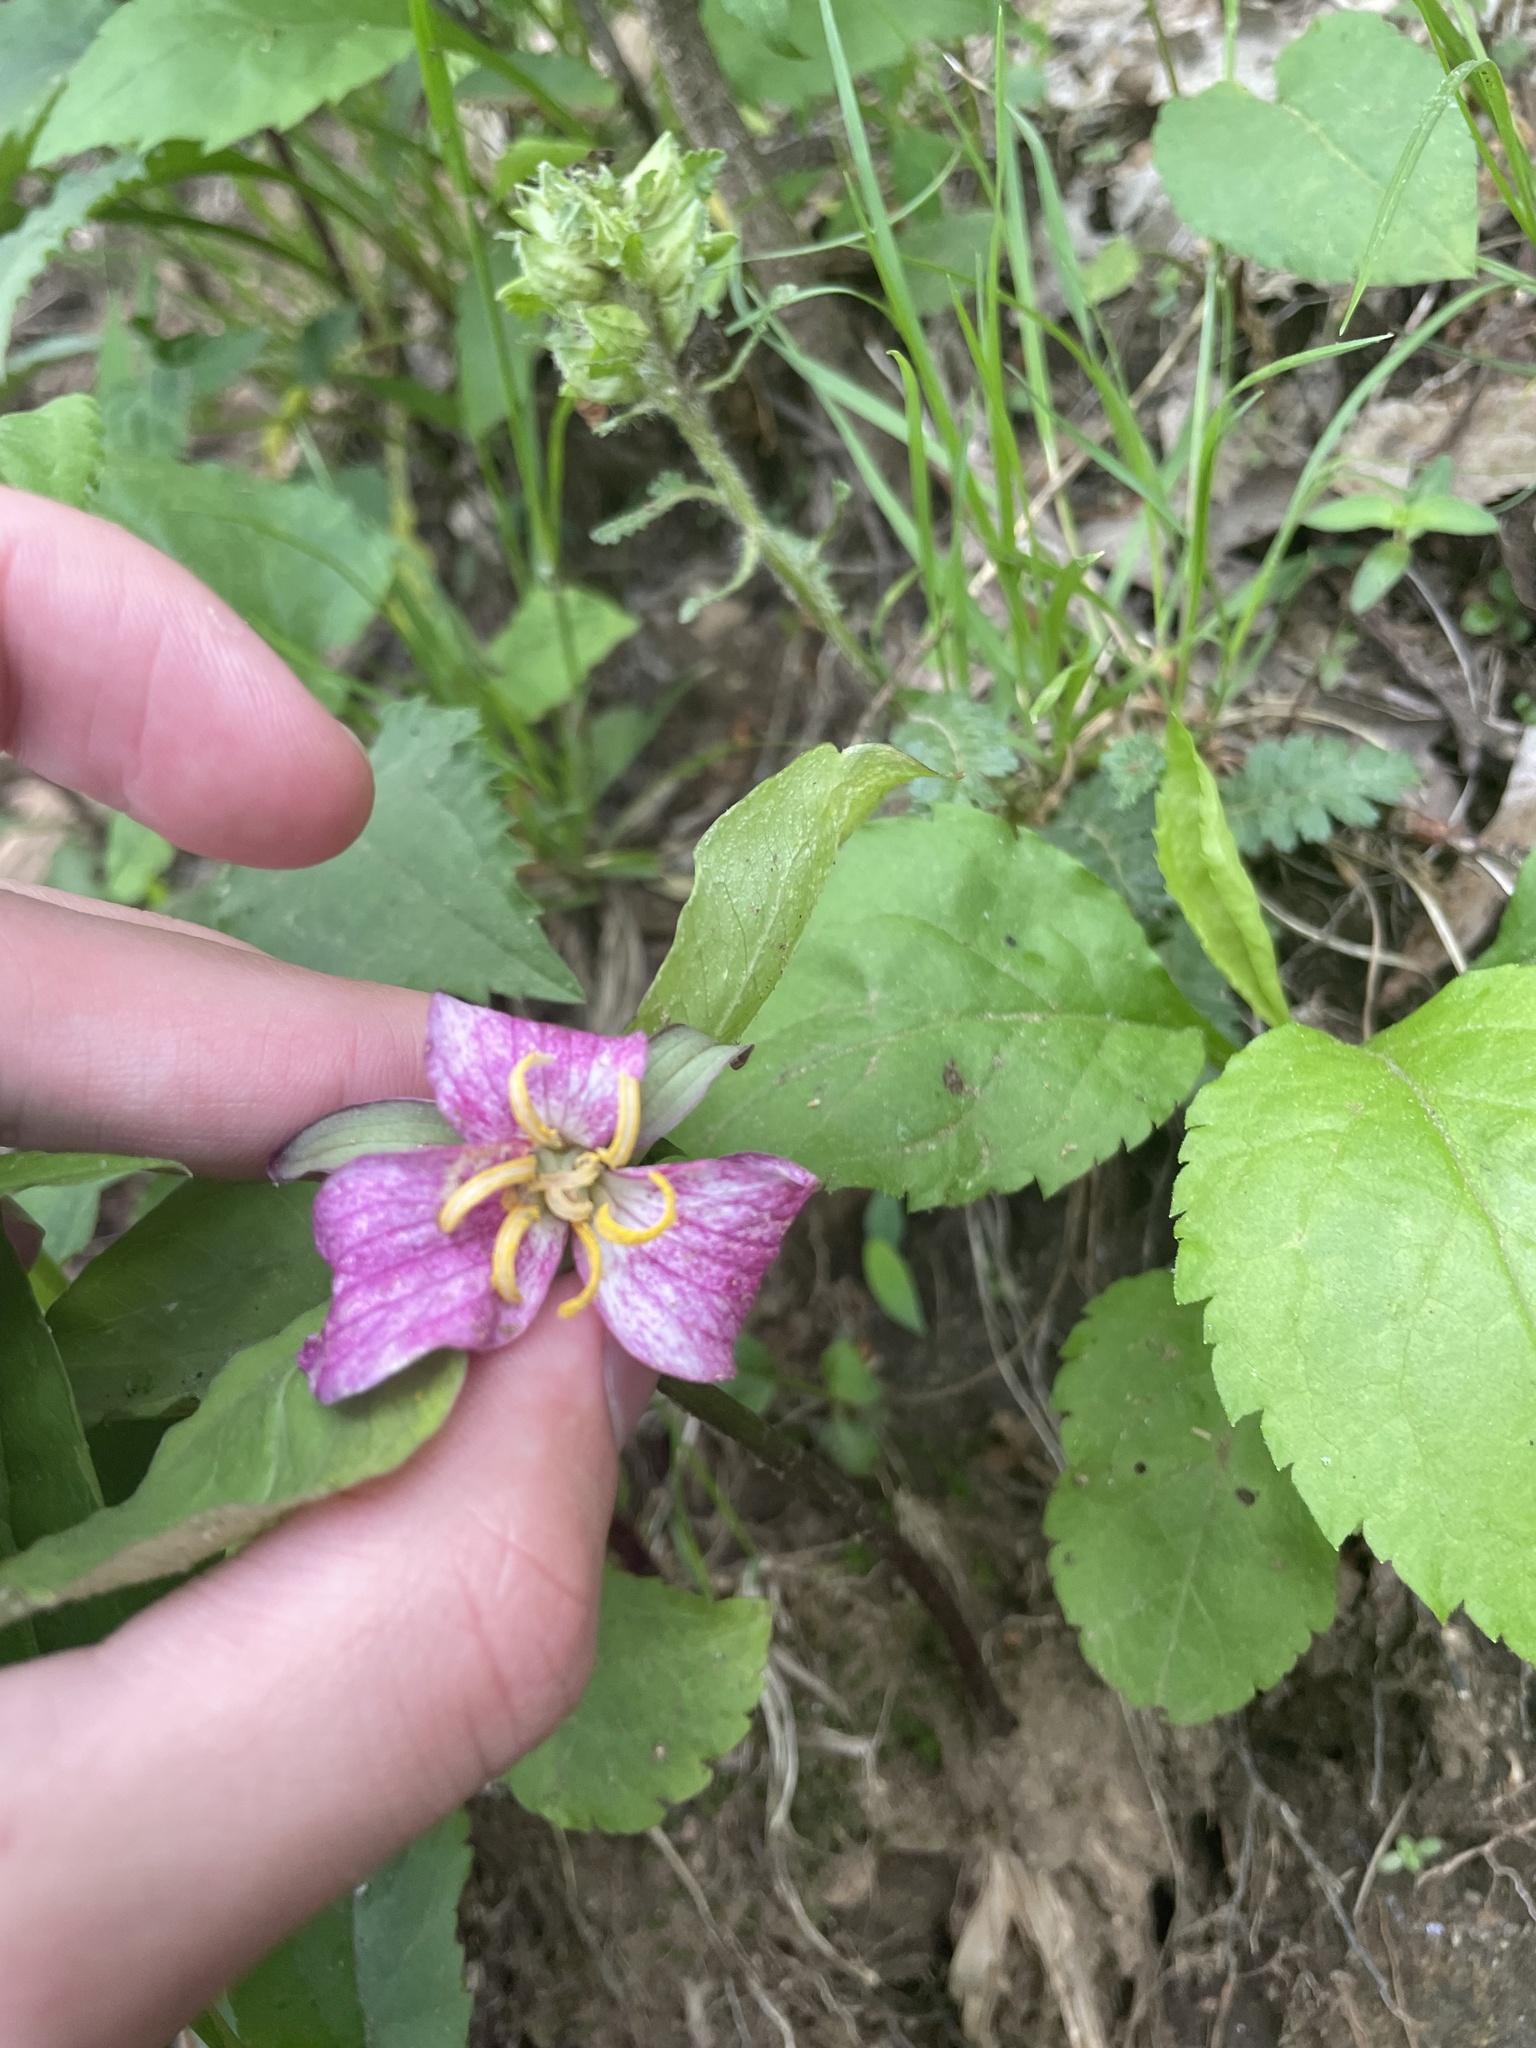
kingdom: Plantae
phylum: Tracheophyta
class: Liliopsida
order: Liliales
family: Melanthiaceae
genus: Trillium
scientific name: Trillium catesbaei
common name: Bashful trillium
